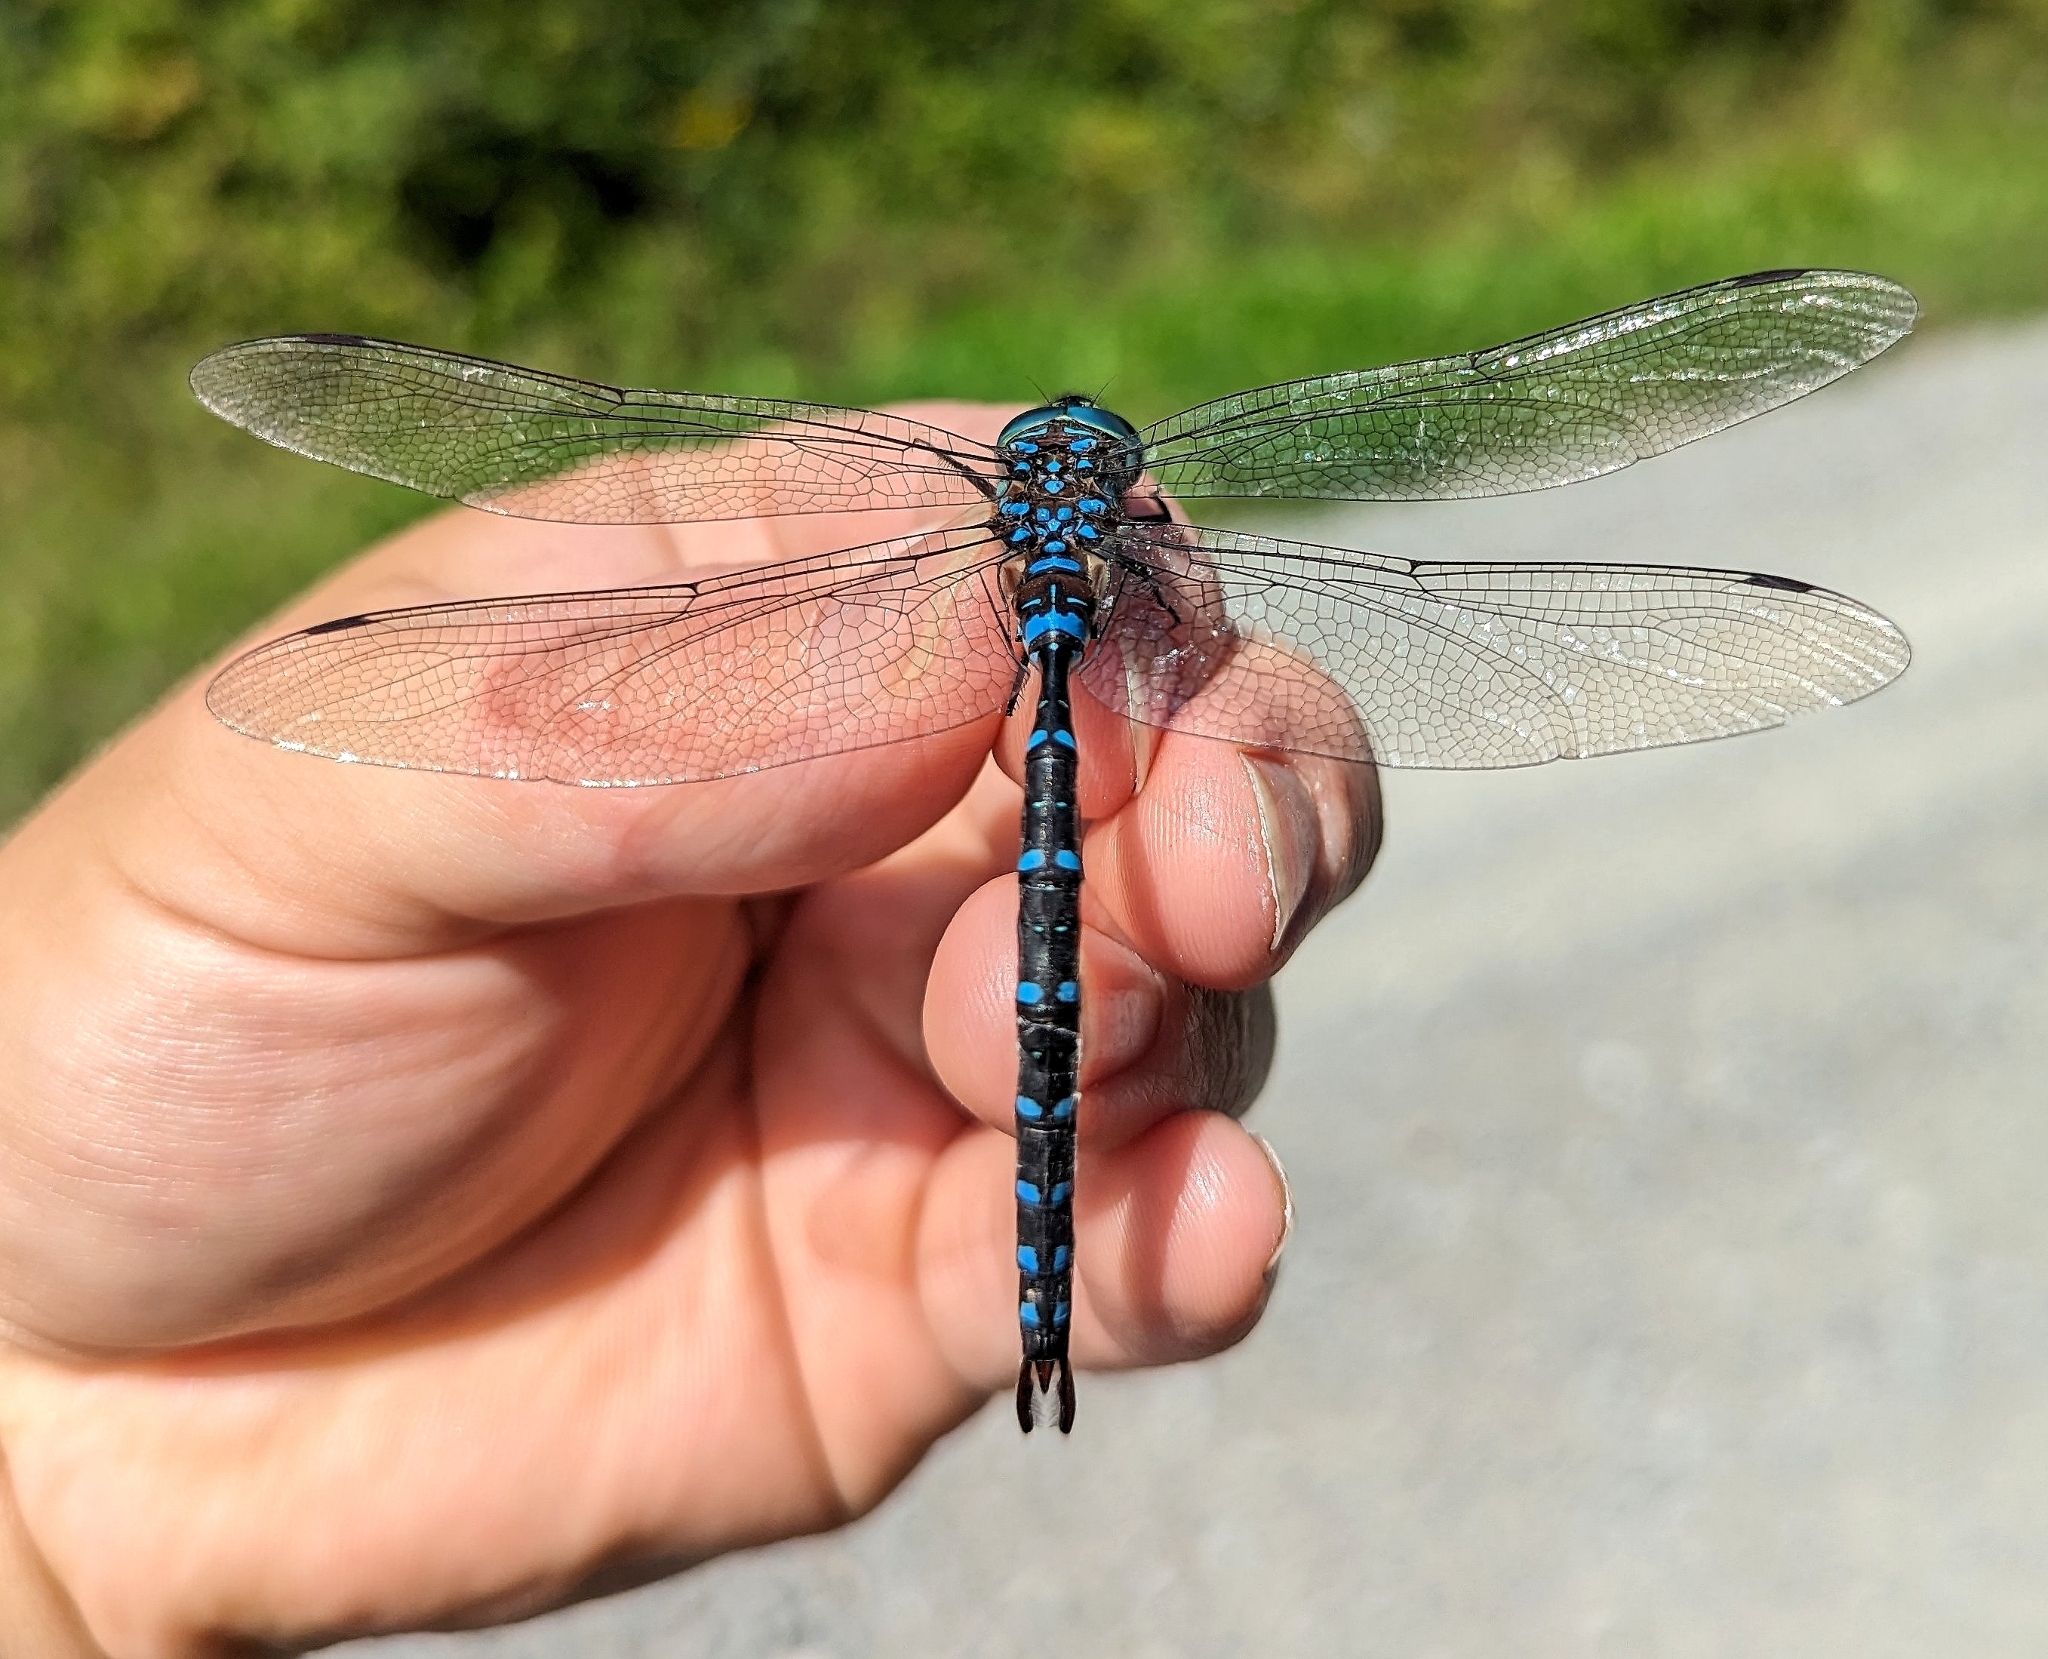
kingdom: Animalia
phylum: Arthropoda
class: Insecta
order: Odonata
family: Aeshnidae
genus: Aeshna
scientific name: Aeshna tuberculifera
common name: Aeschne à tubercules
